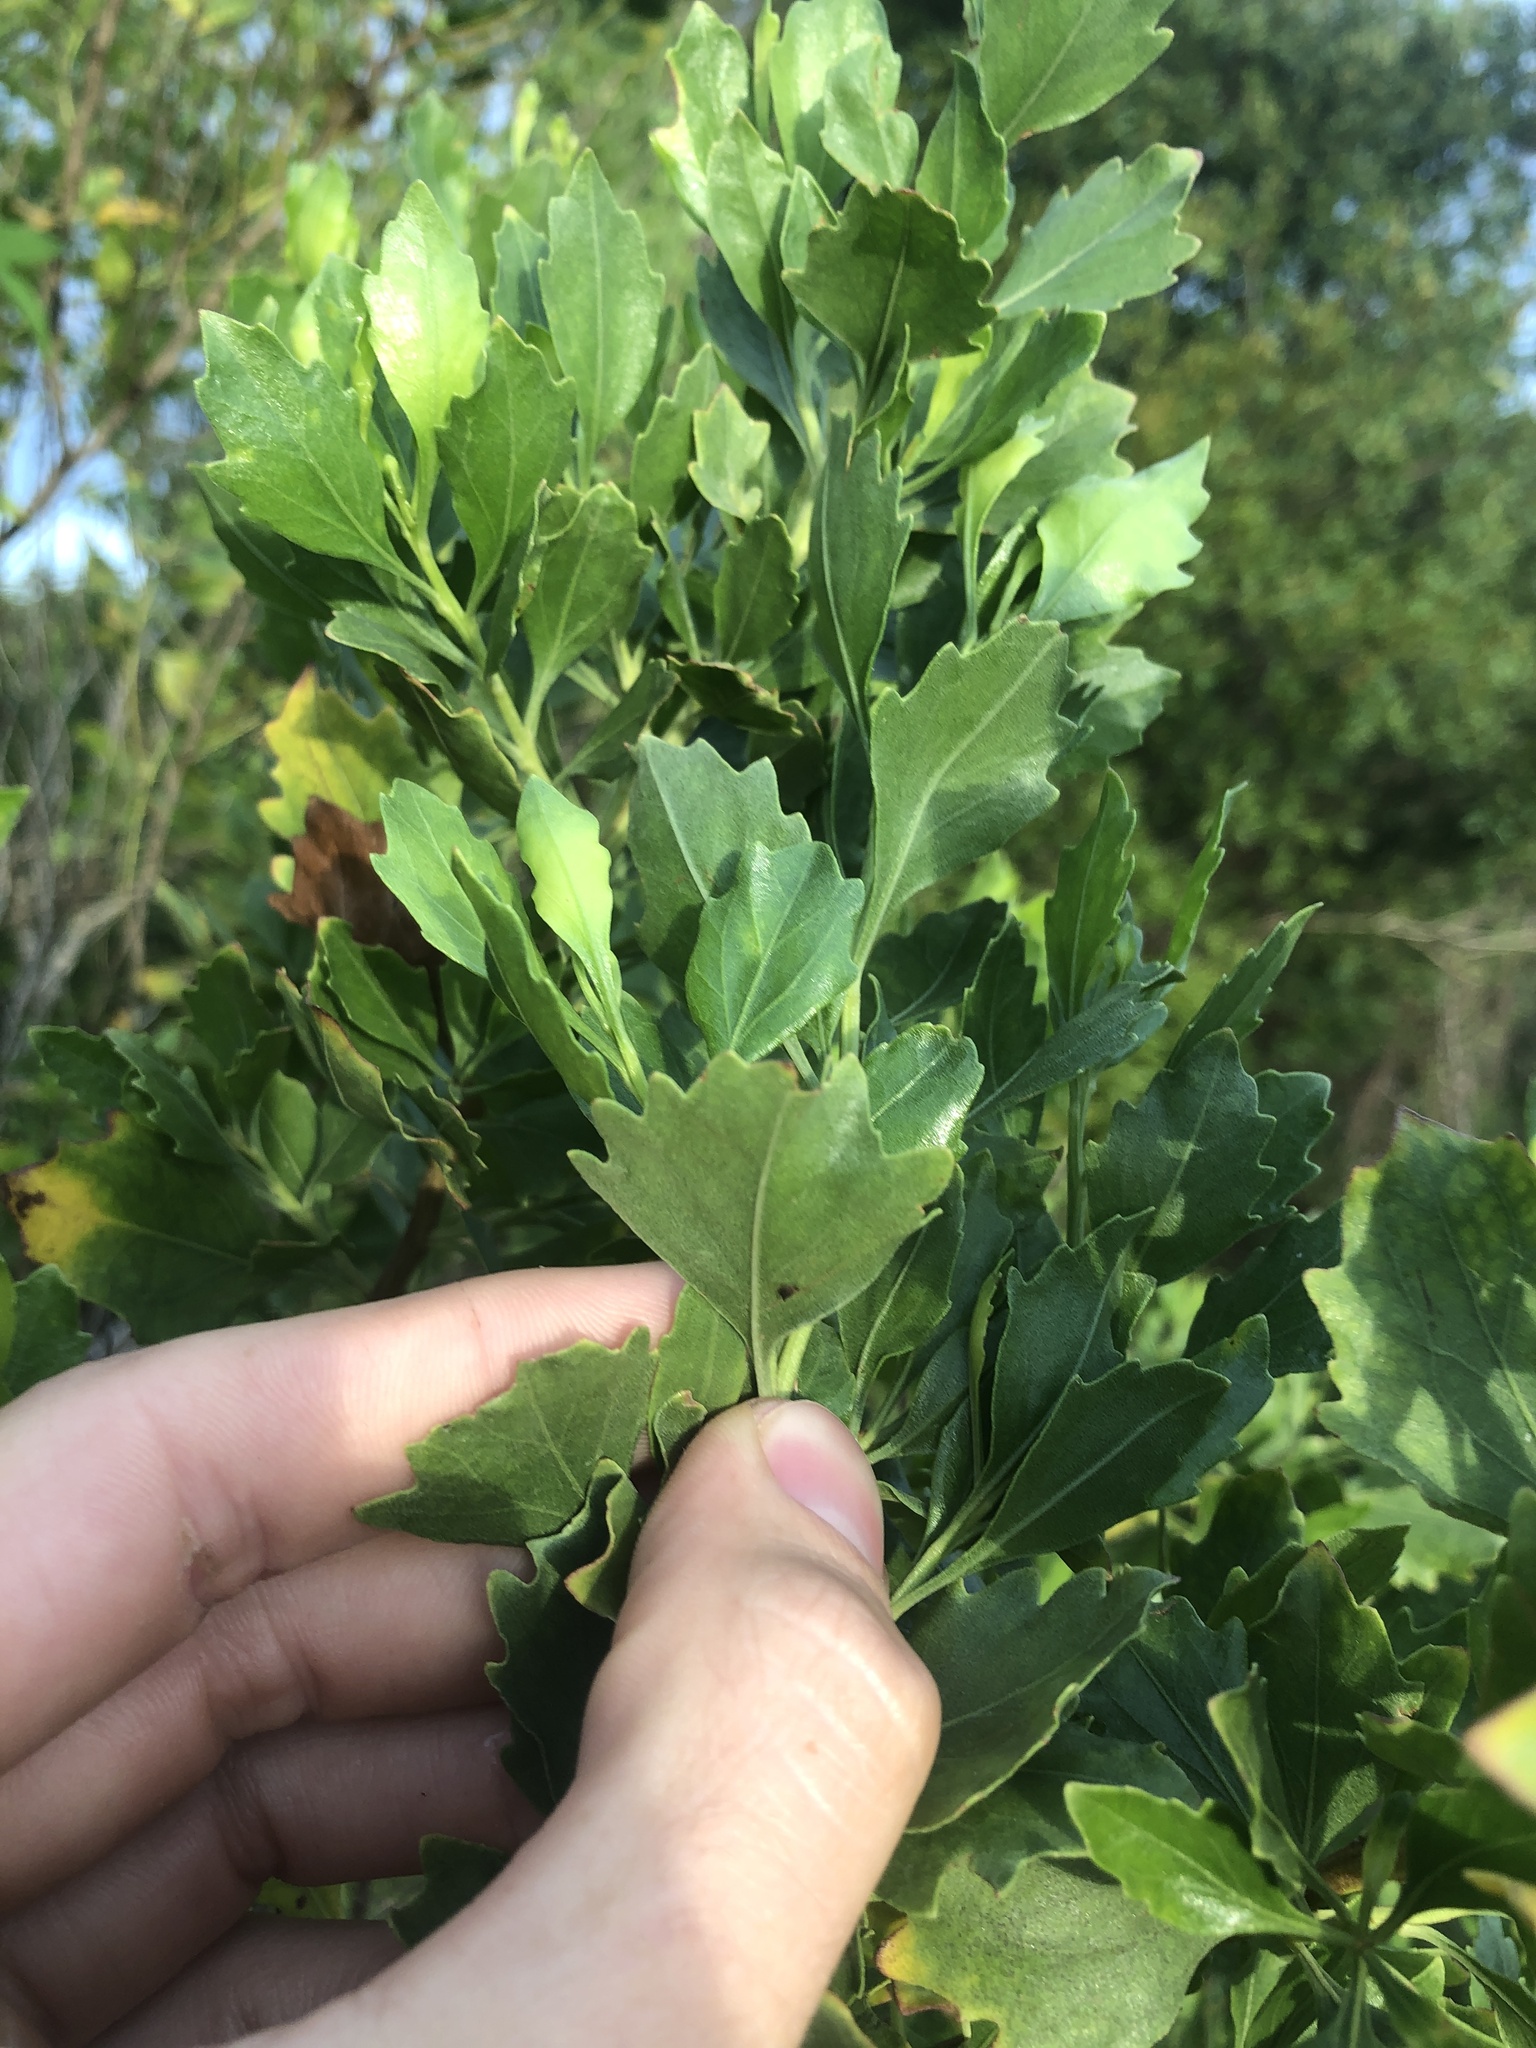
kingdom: Plantae
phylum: Tracheophyta
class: Magnoliopsida
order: Asterales
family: Asteraceae
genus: Baccharis
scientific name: Baccharis halimifolia
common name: Eastern baccharis
